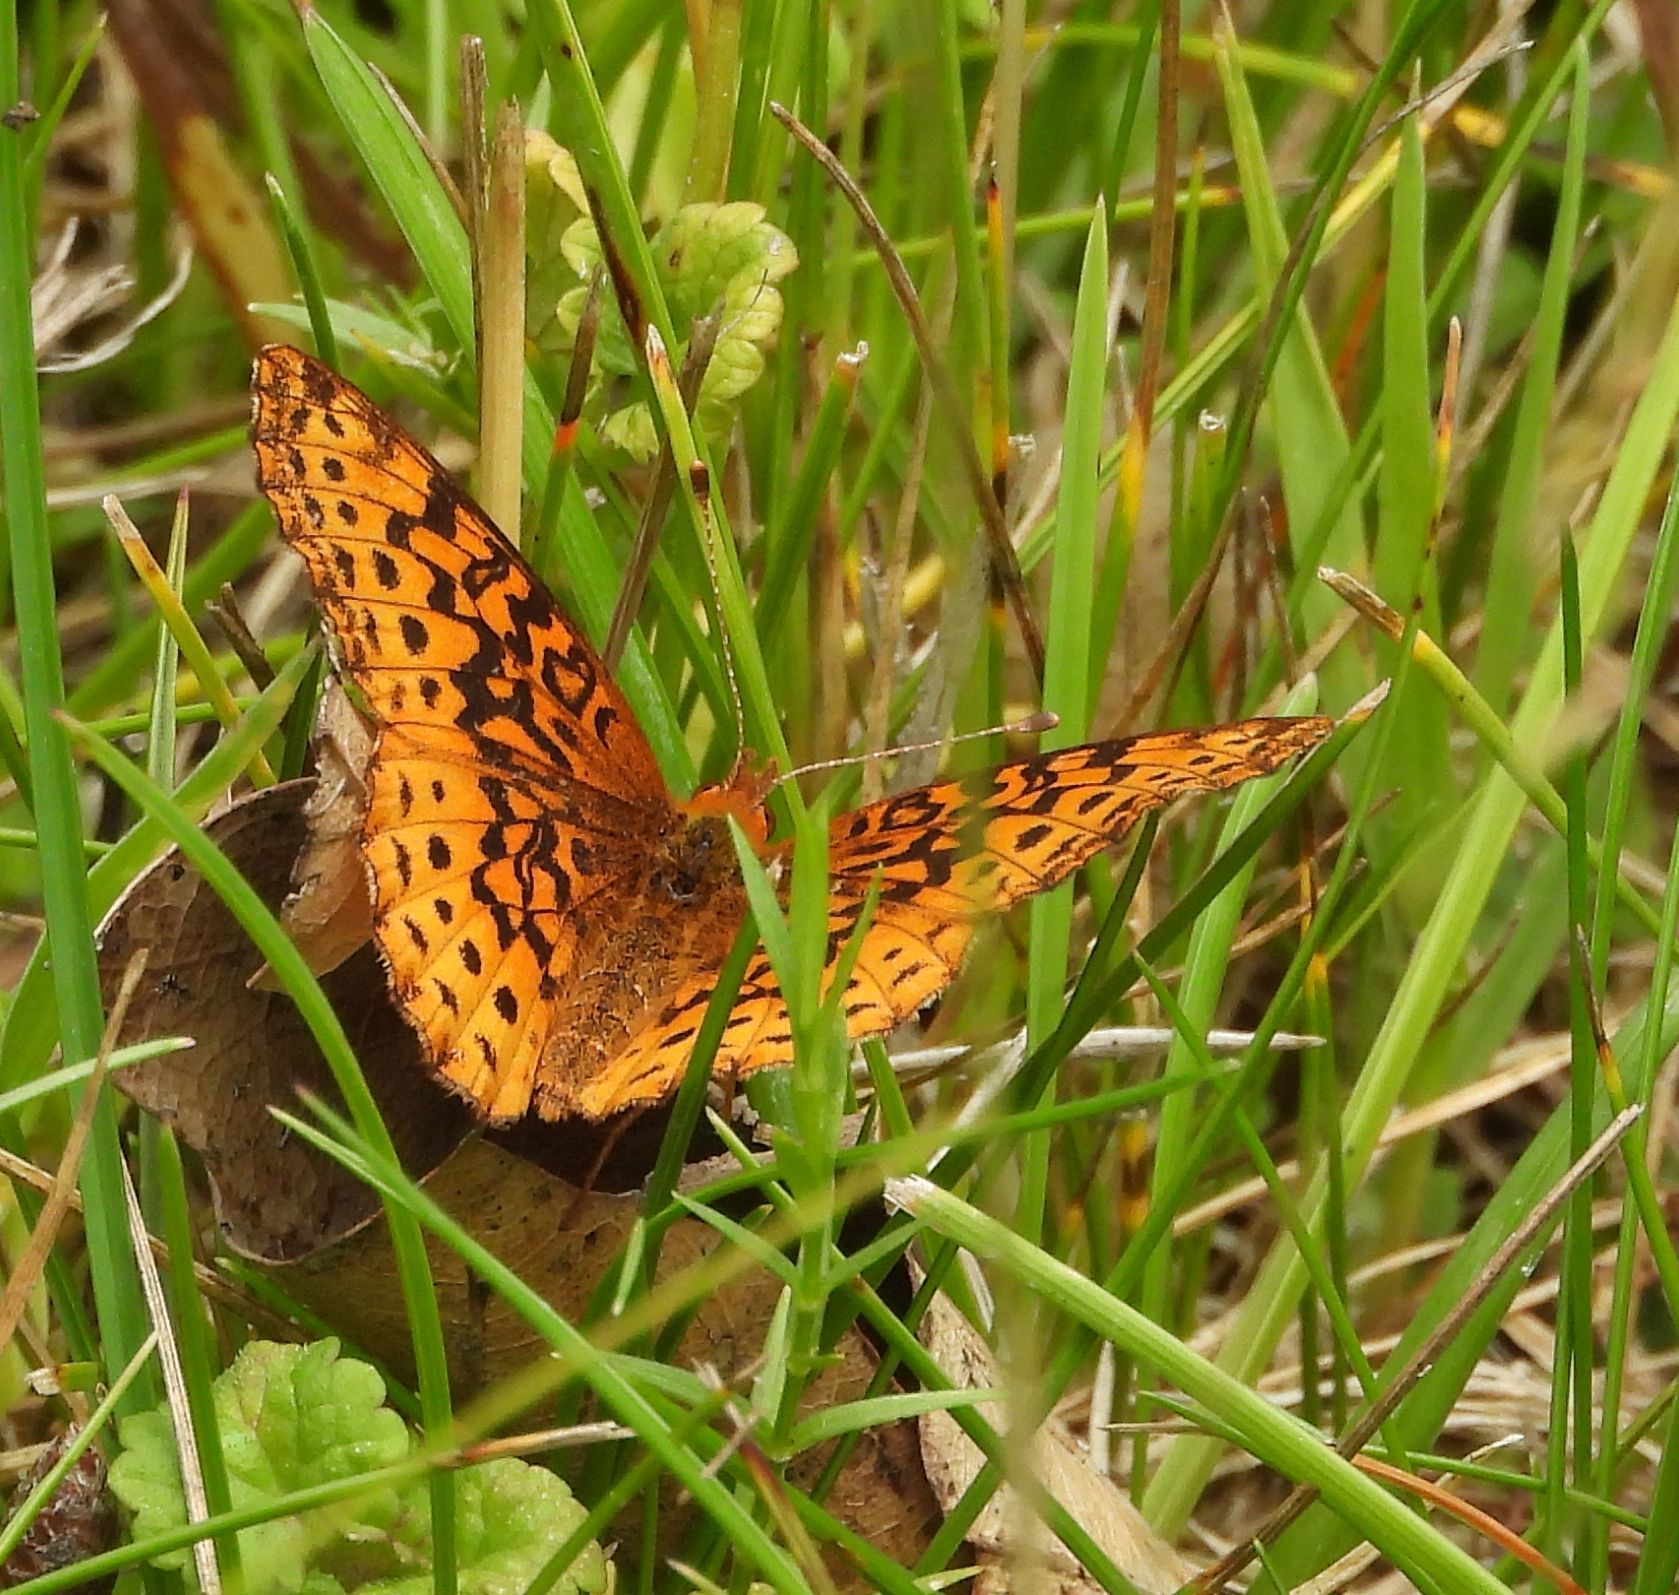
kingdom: Animalia
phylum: Arthropoda
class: Insecta
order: Lepidoptera
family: Nymphalidae
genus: Clossiana
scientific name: Clossiana toddi
